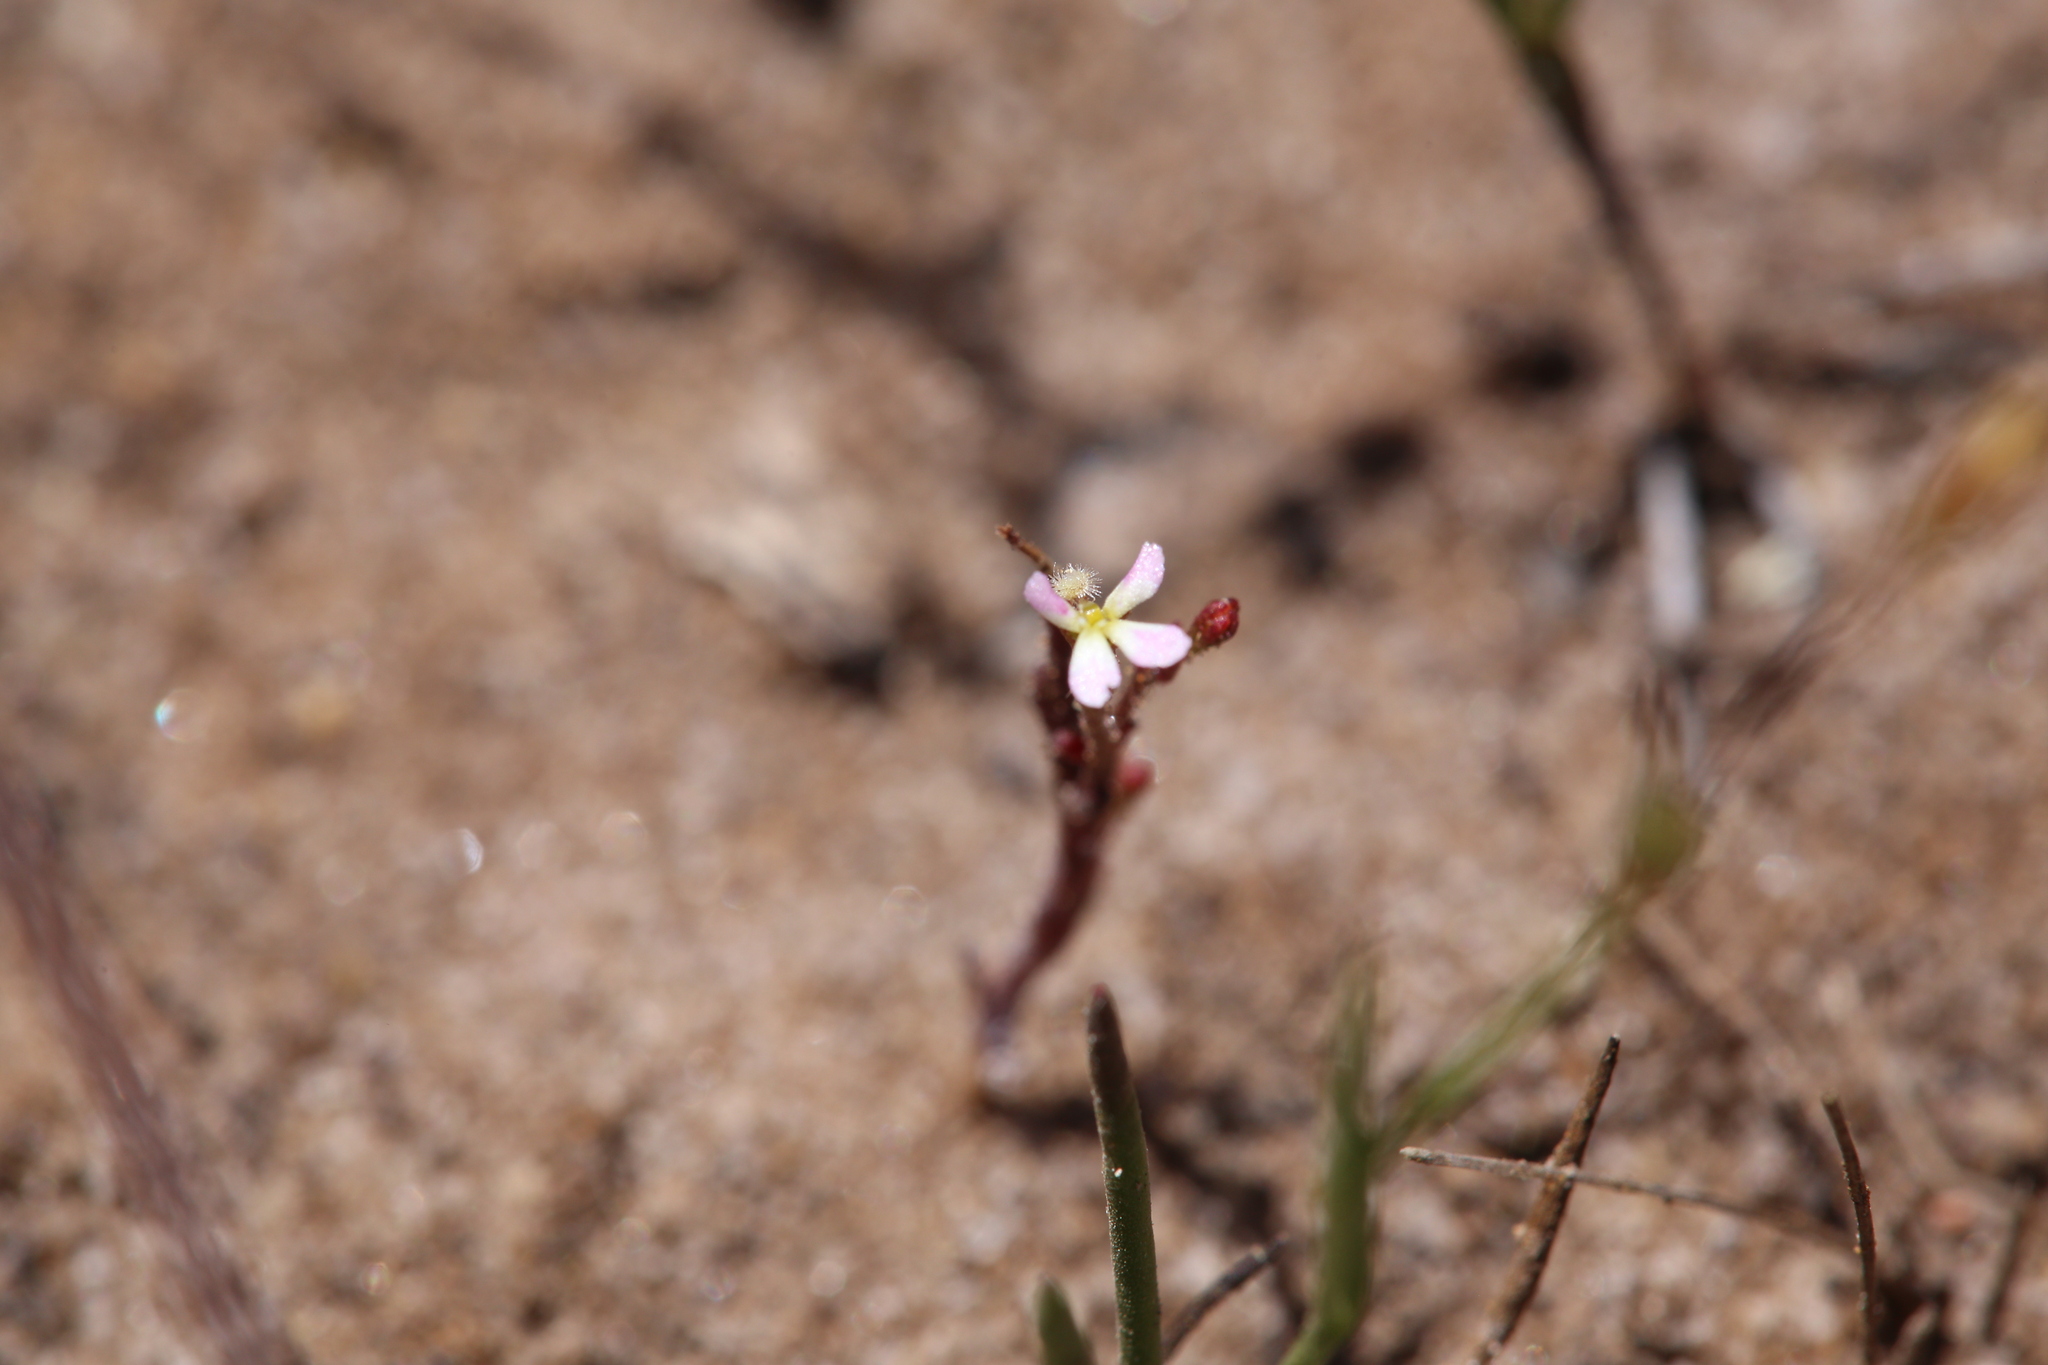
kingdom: Plantae
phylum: Tracheophyta
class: Magnoliopsida
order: Asterales
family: Stylidiaceae
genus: Stylidium
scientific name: Stylidium inundatum
